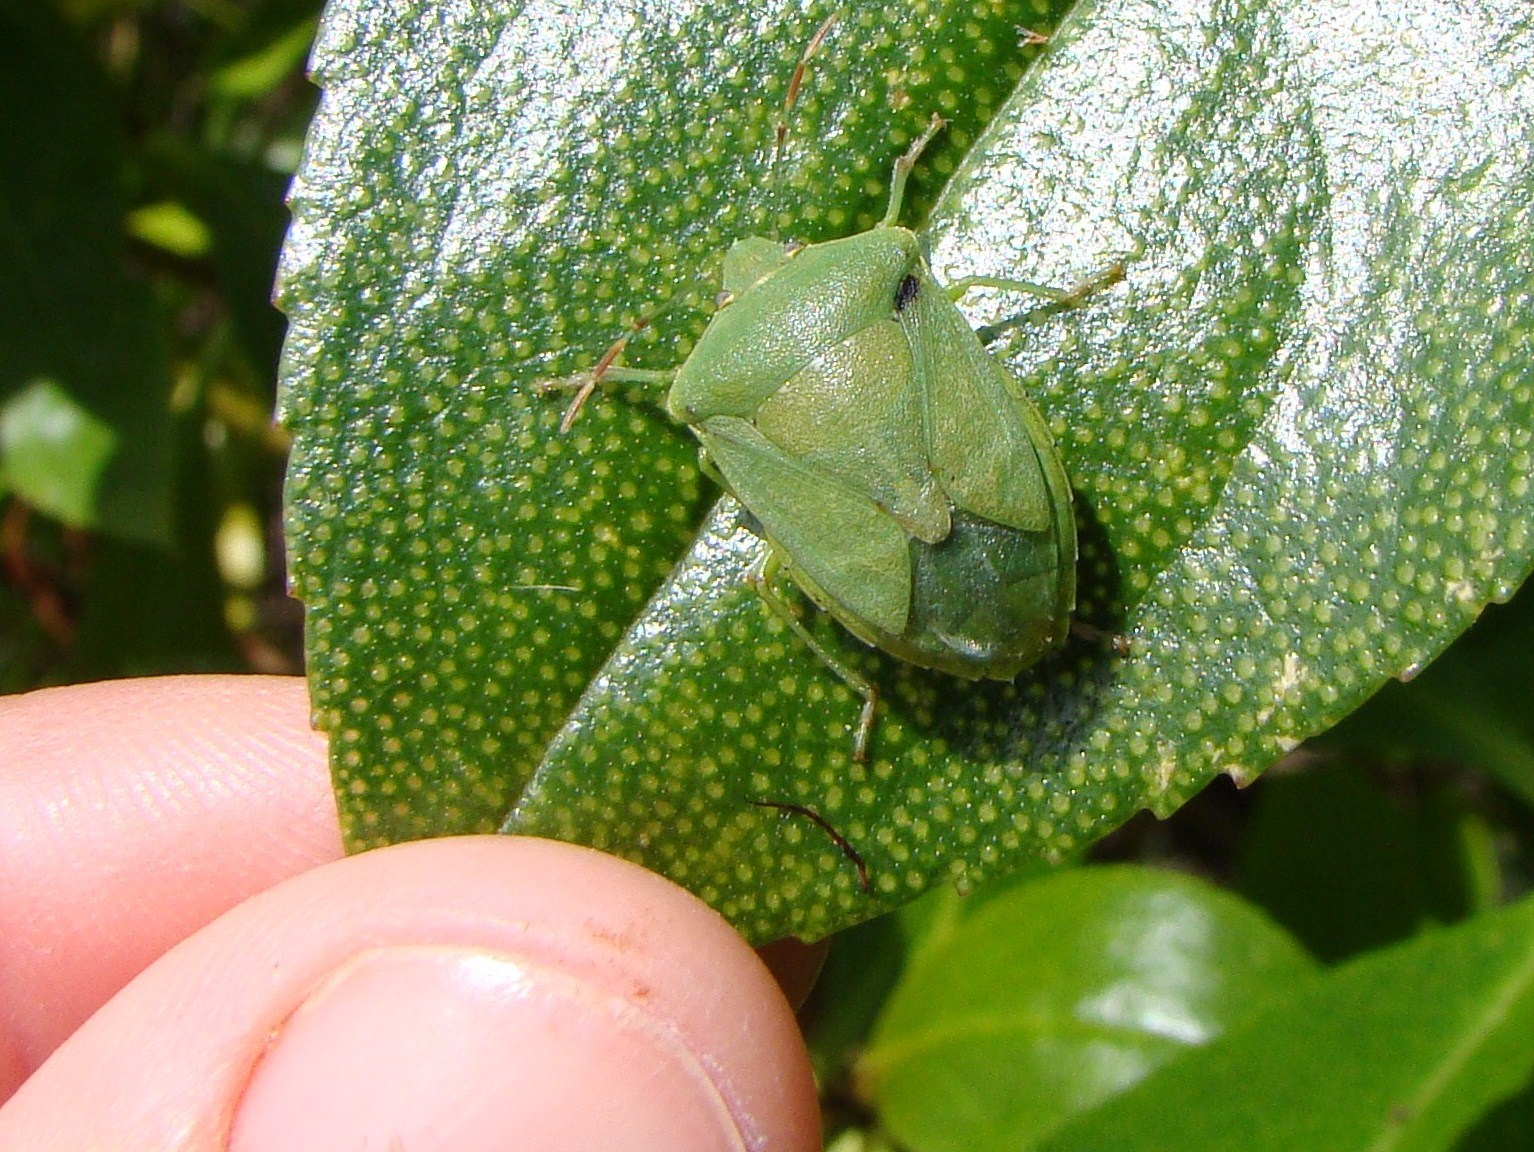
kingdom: Animalia
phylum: Arthropoda
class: Insecta
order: Hemiptera
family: Pentatomidae
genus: Nezara
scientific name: Nezara viridula
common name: Southern green stink bug
